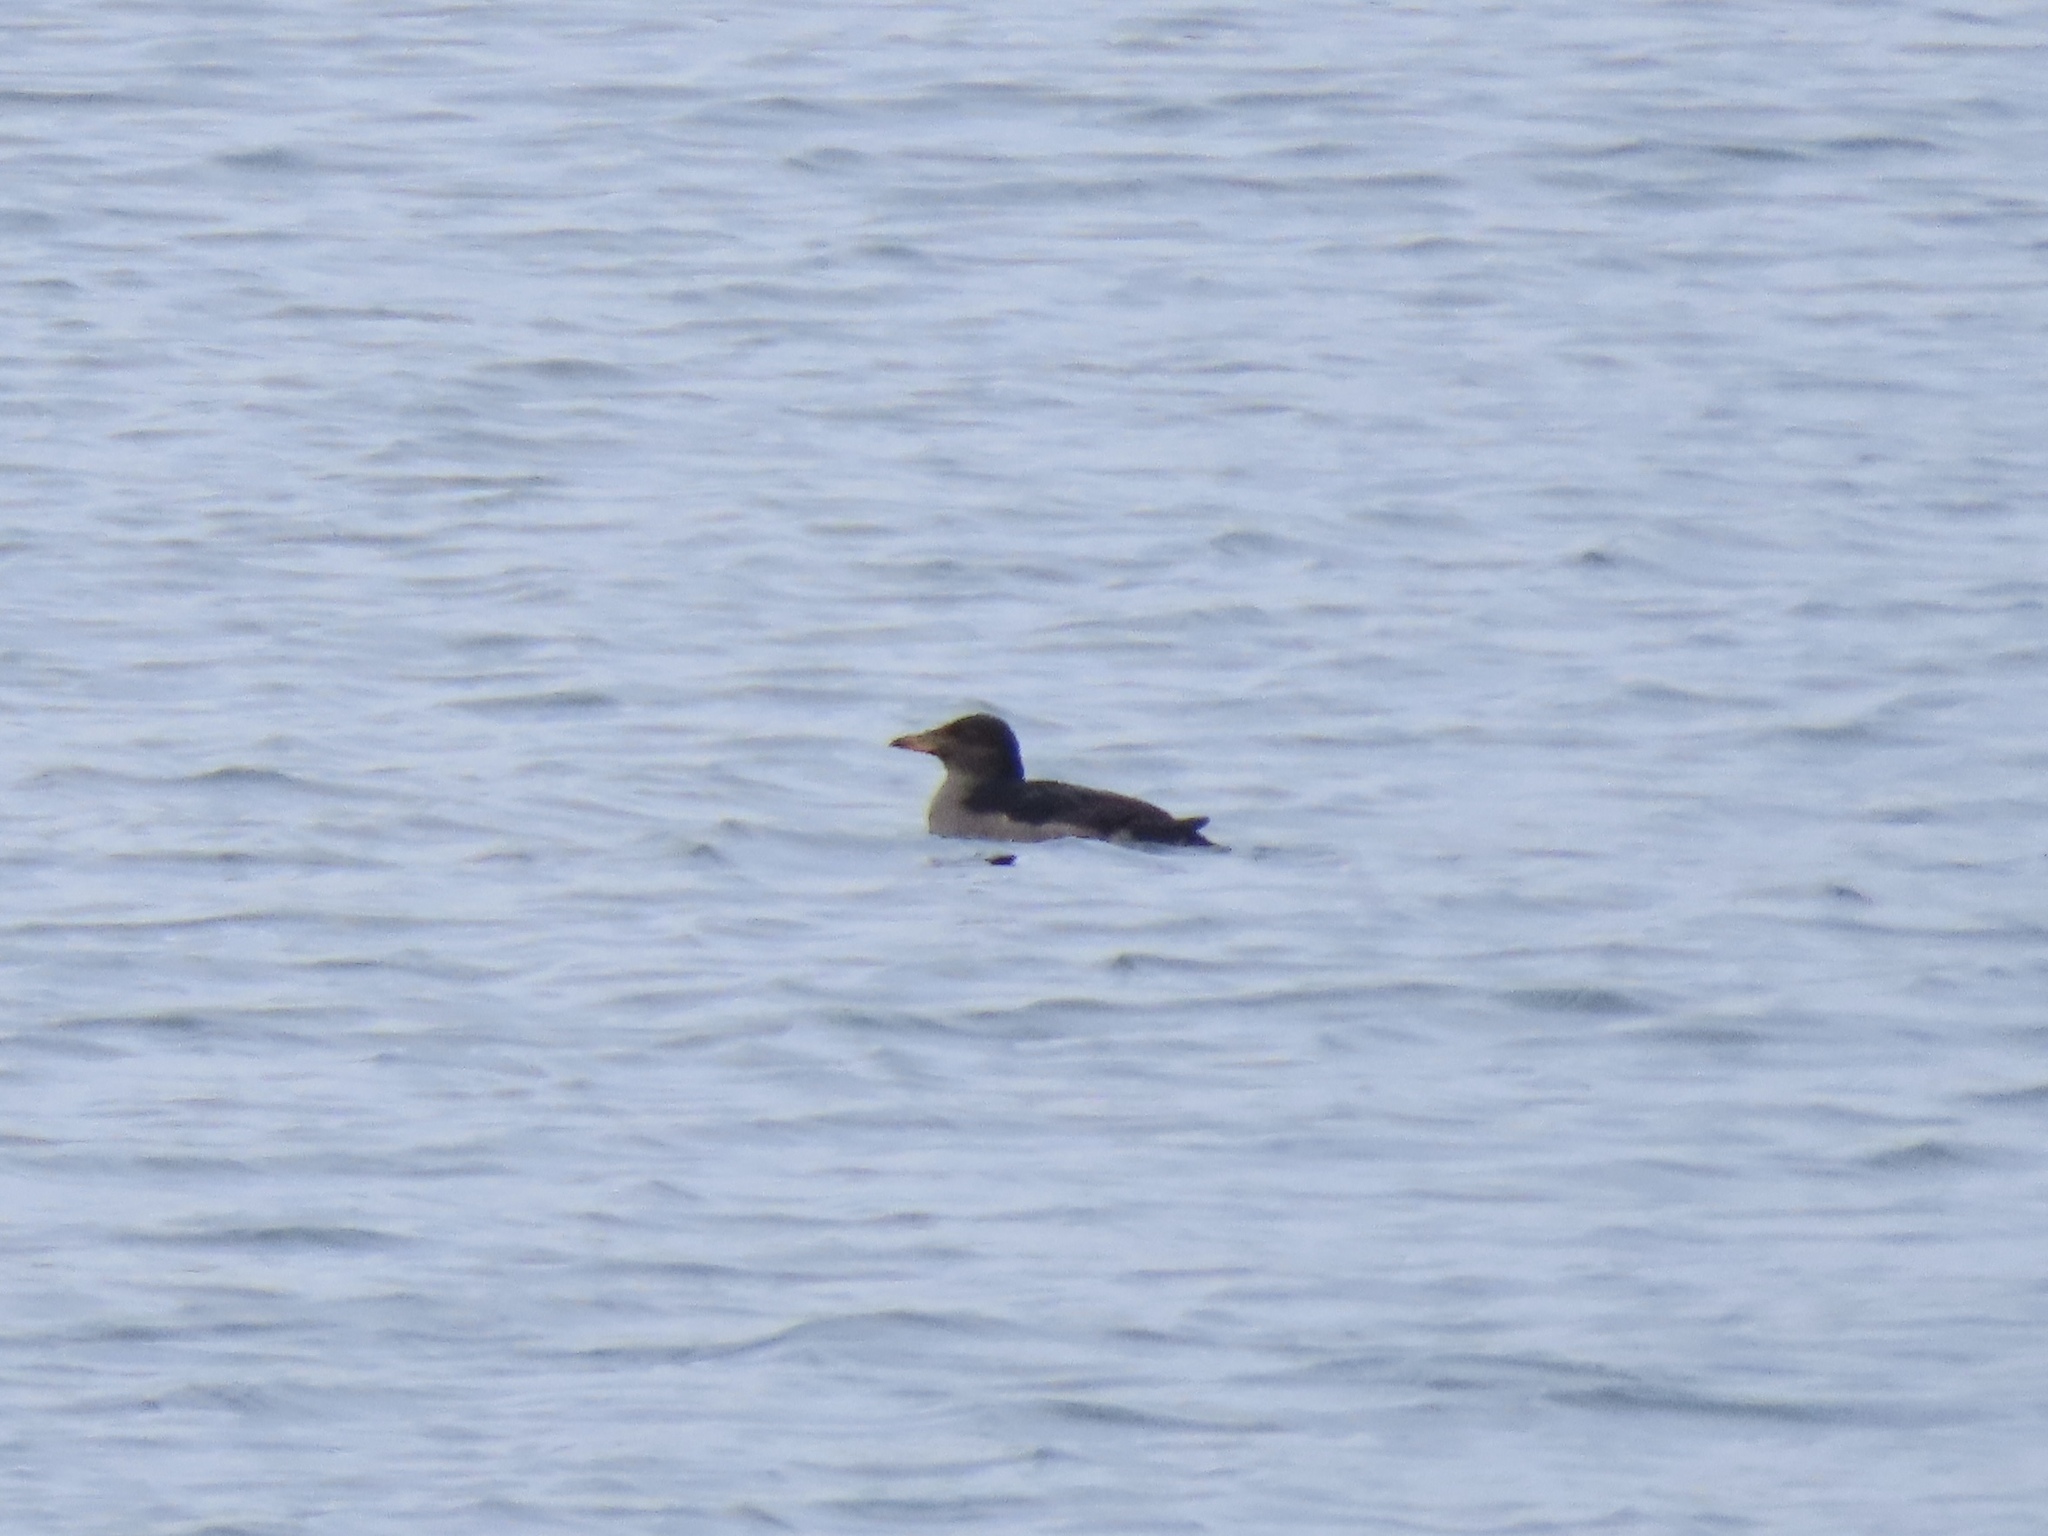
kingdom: Animalia
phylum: Chordata
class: Aves
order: Charadriiformes
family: Alcidae
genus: Cerorhinca
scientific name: Cerorhinca monocerata
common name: Rhinoceros auklet
